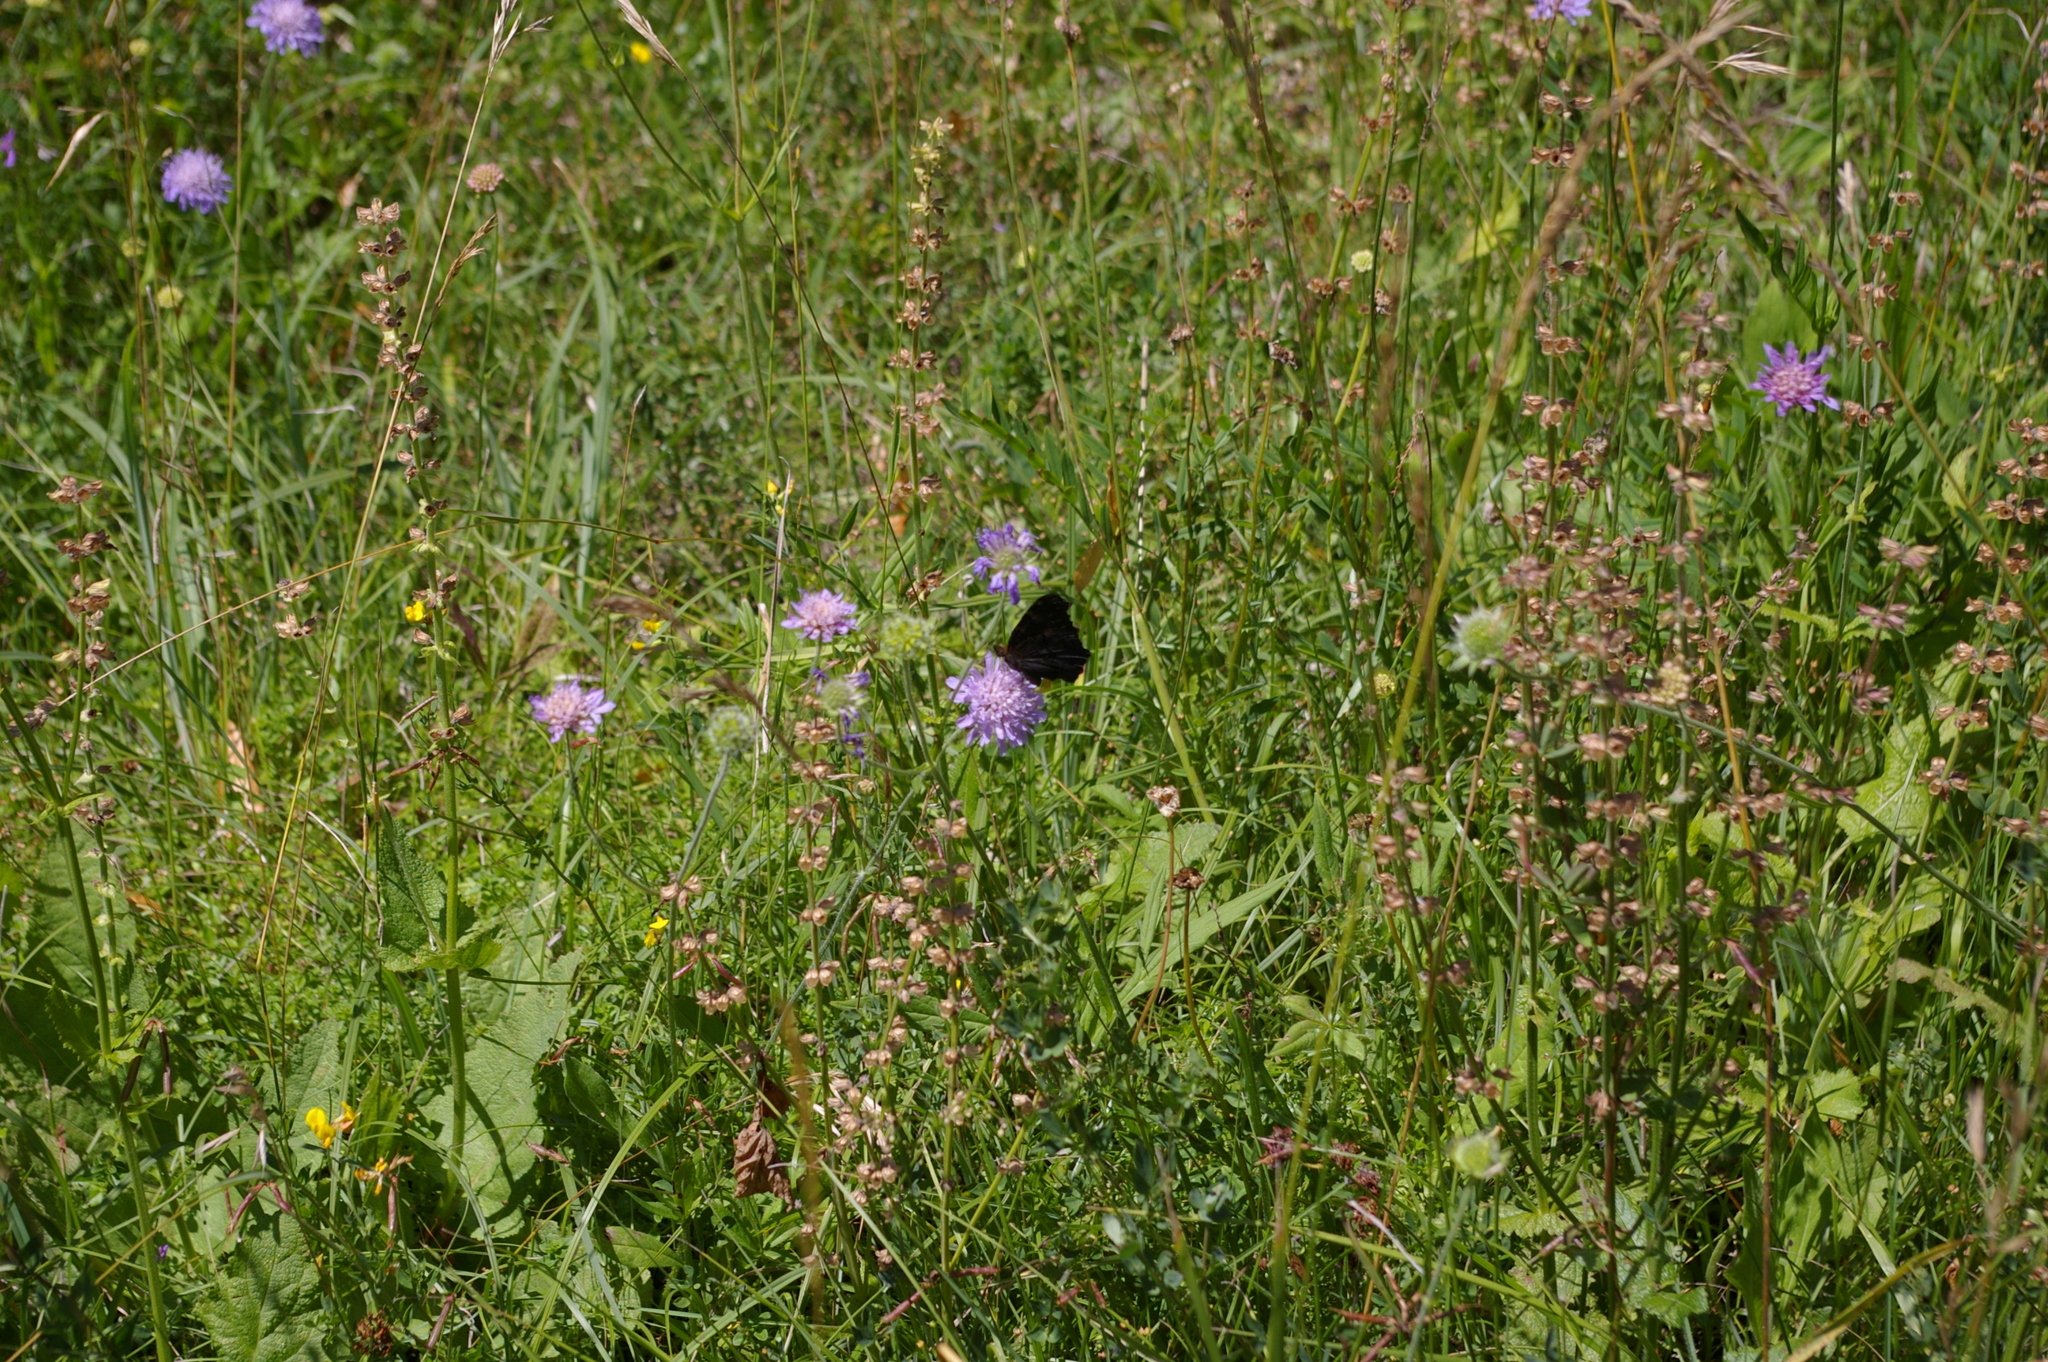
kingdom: Animalia
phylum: Arthropoda
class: Insecta
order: Lepidoptera
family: Nymphalidae
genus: Aglais
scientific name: Aglais io
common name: Peacock
